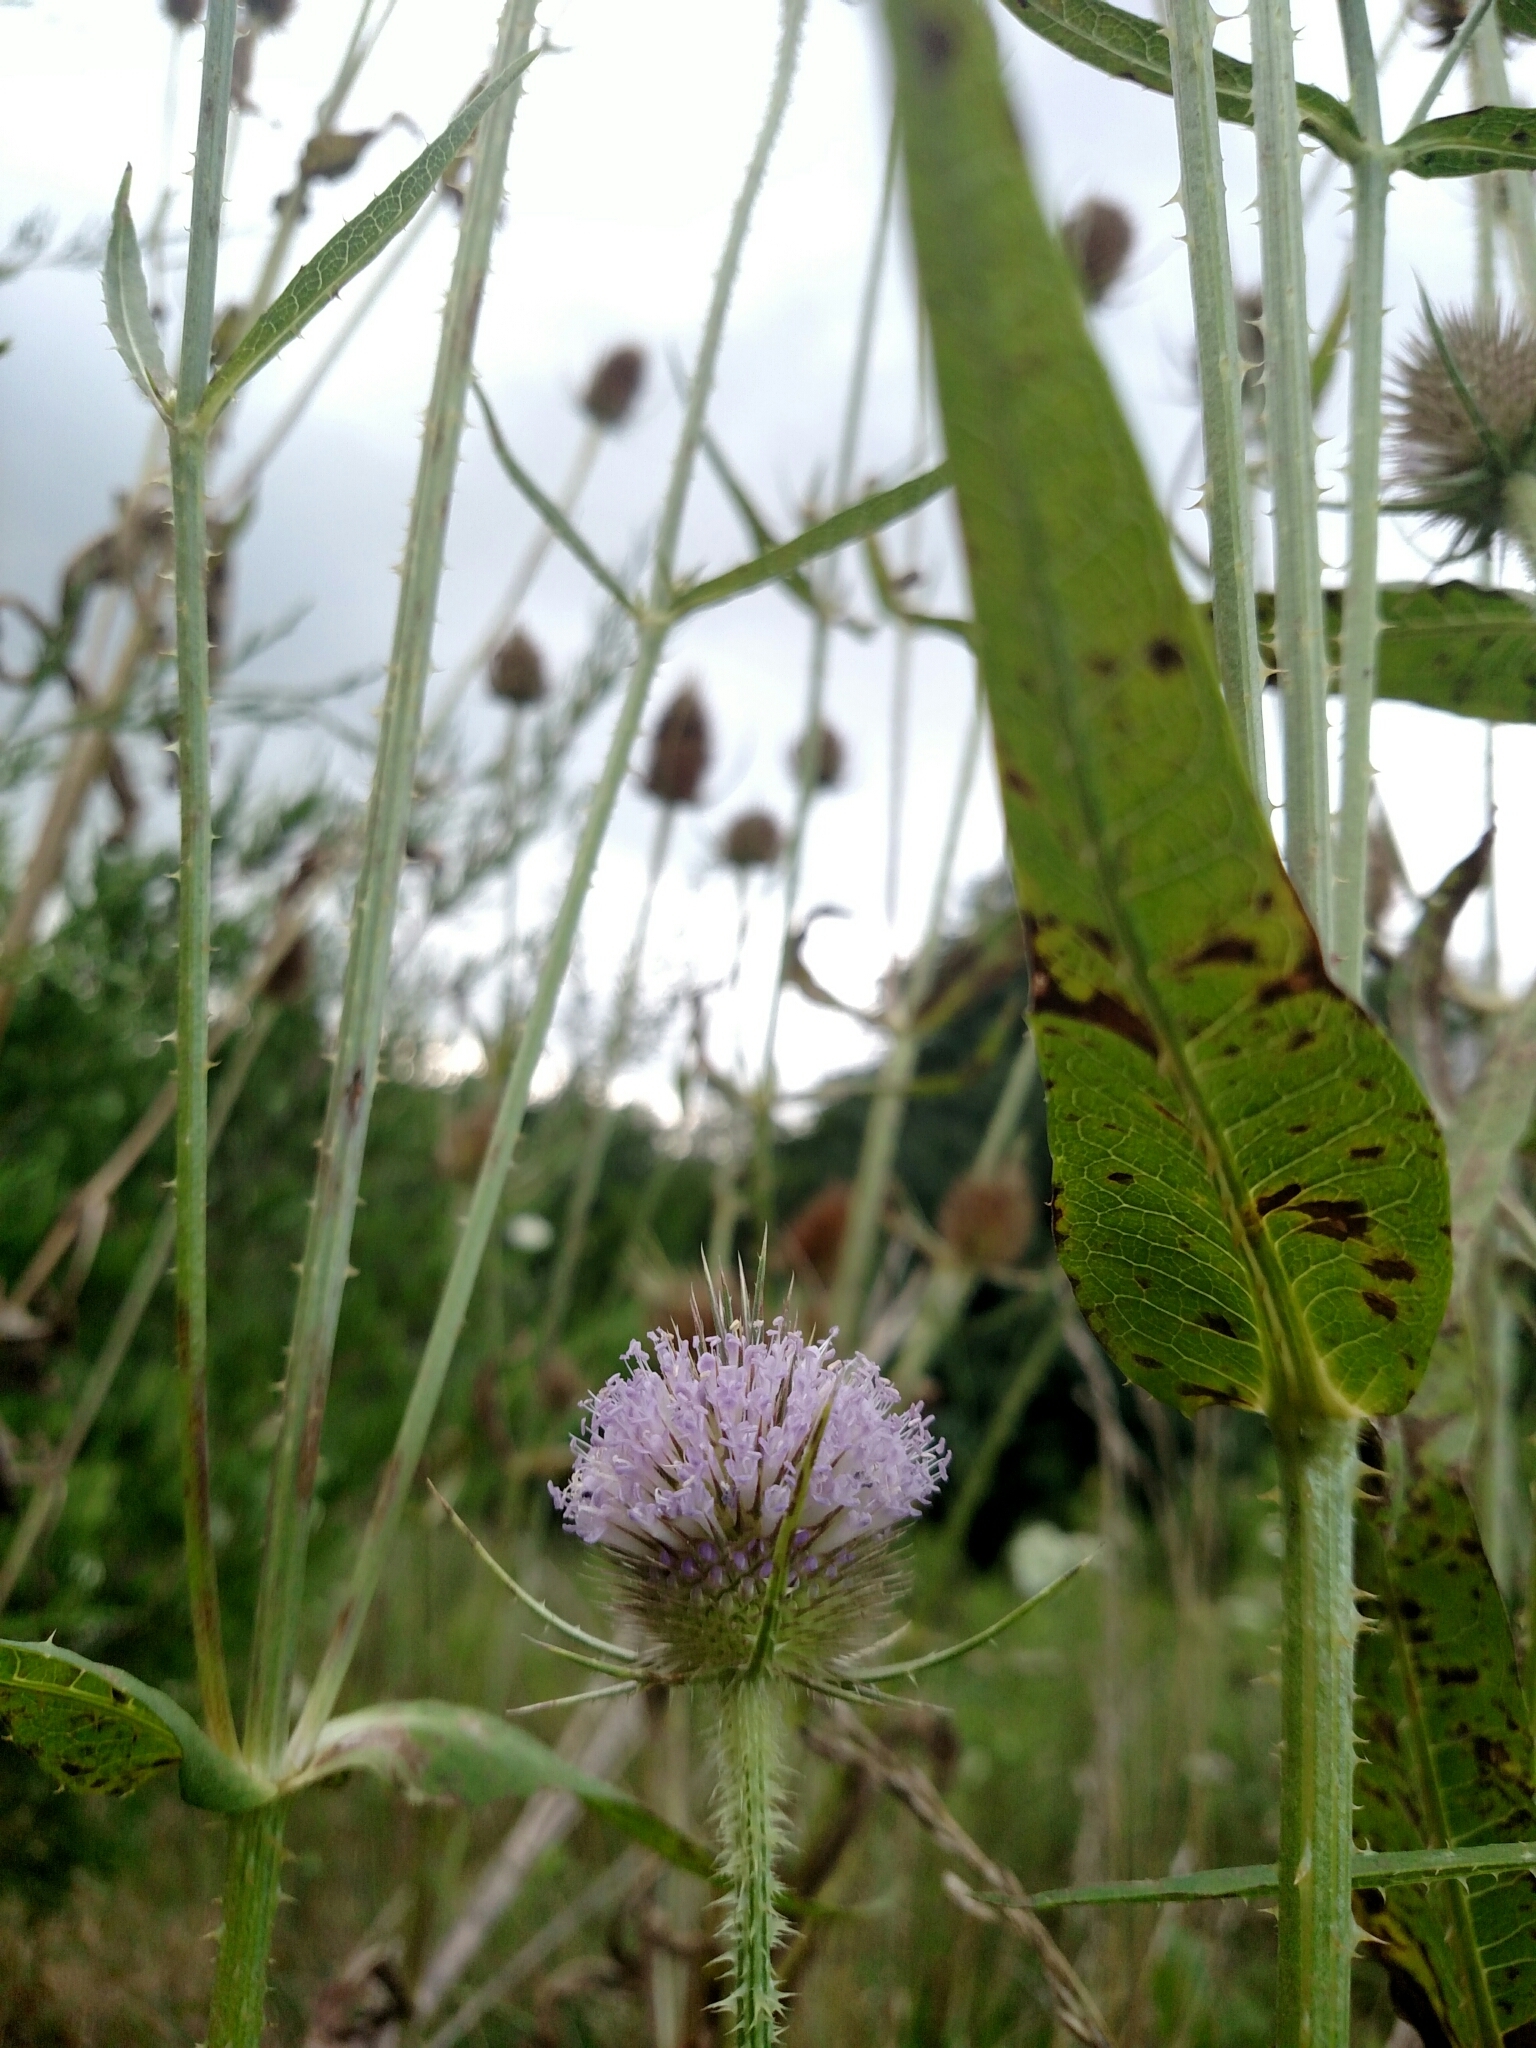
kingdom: Plantae
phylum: Tracheophyta
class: Magnoliopsida
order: Dipsacales
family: Caprifoliaceae
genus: Dipsacus
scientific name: Dipsacus fullonum
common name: Teasel
